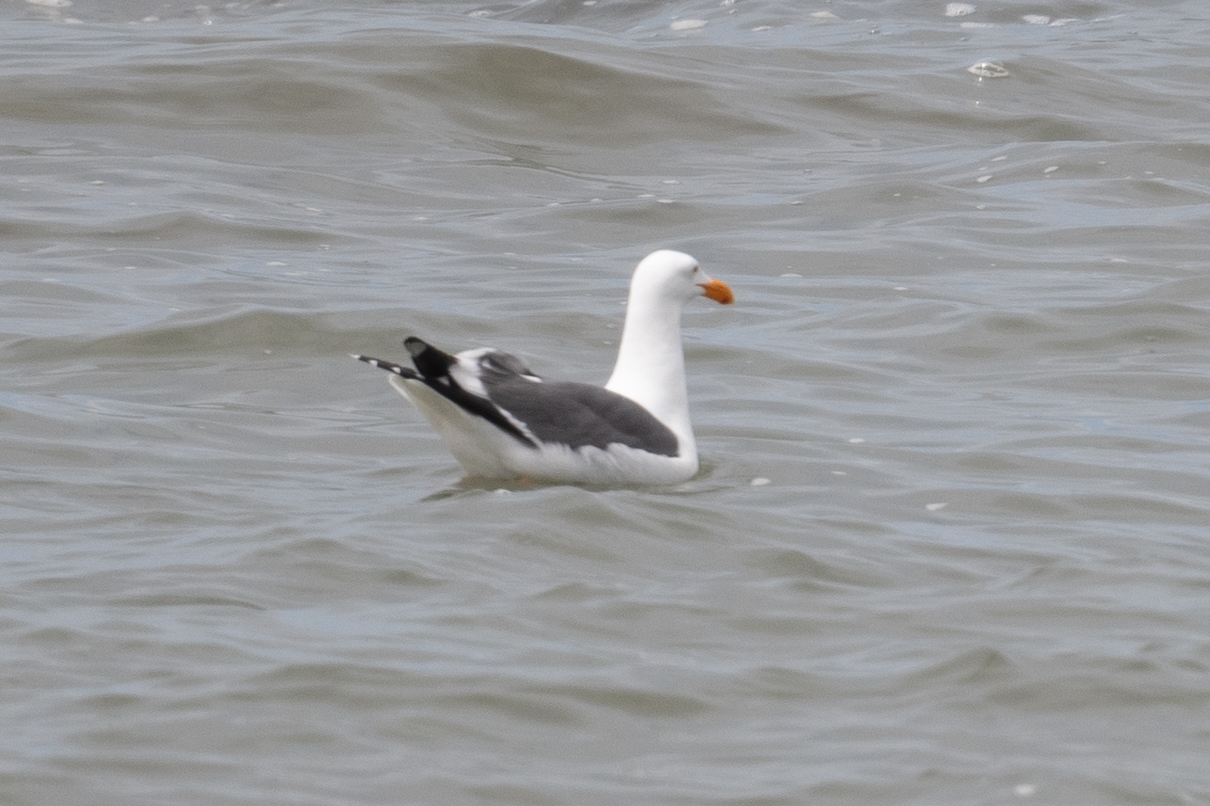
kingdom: Animalia
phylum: Chordata
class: Aves
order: Charadriiformes
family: Laridae
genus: Larus
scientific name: Larus occidentalis
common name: Western gull
